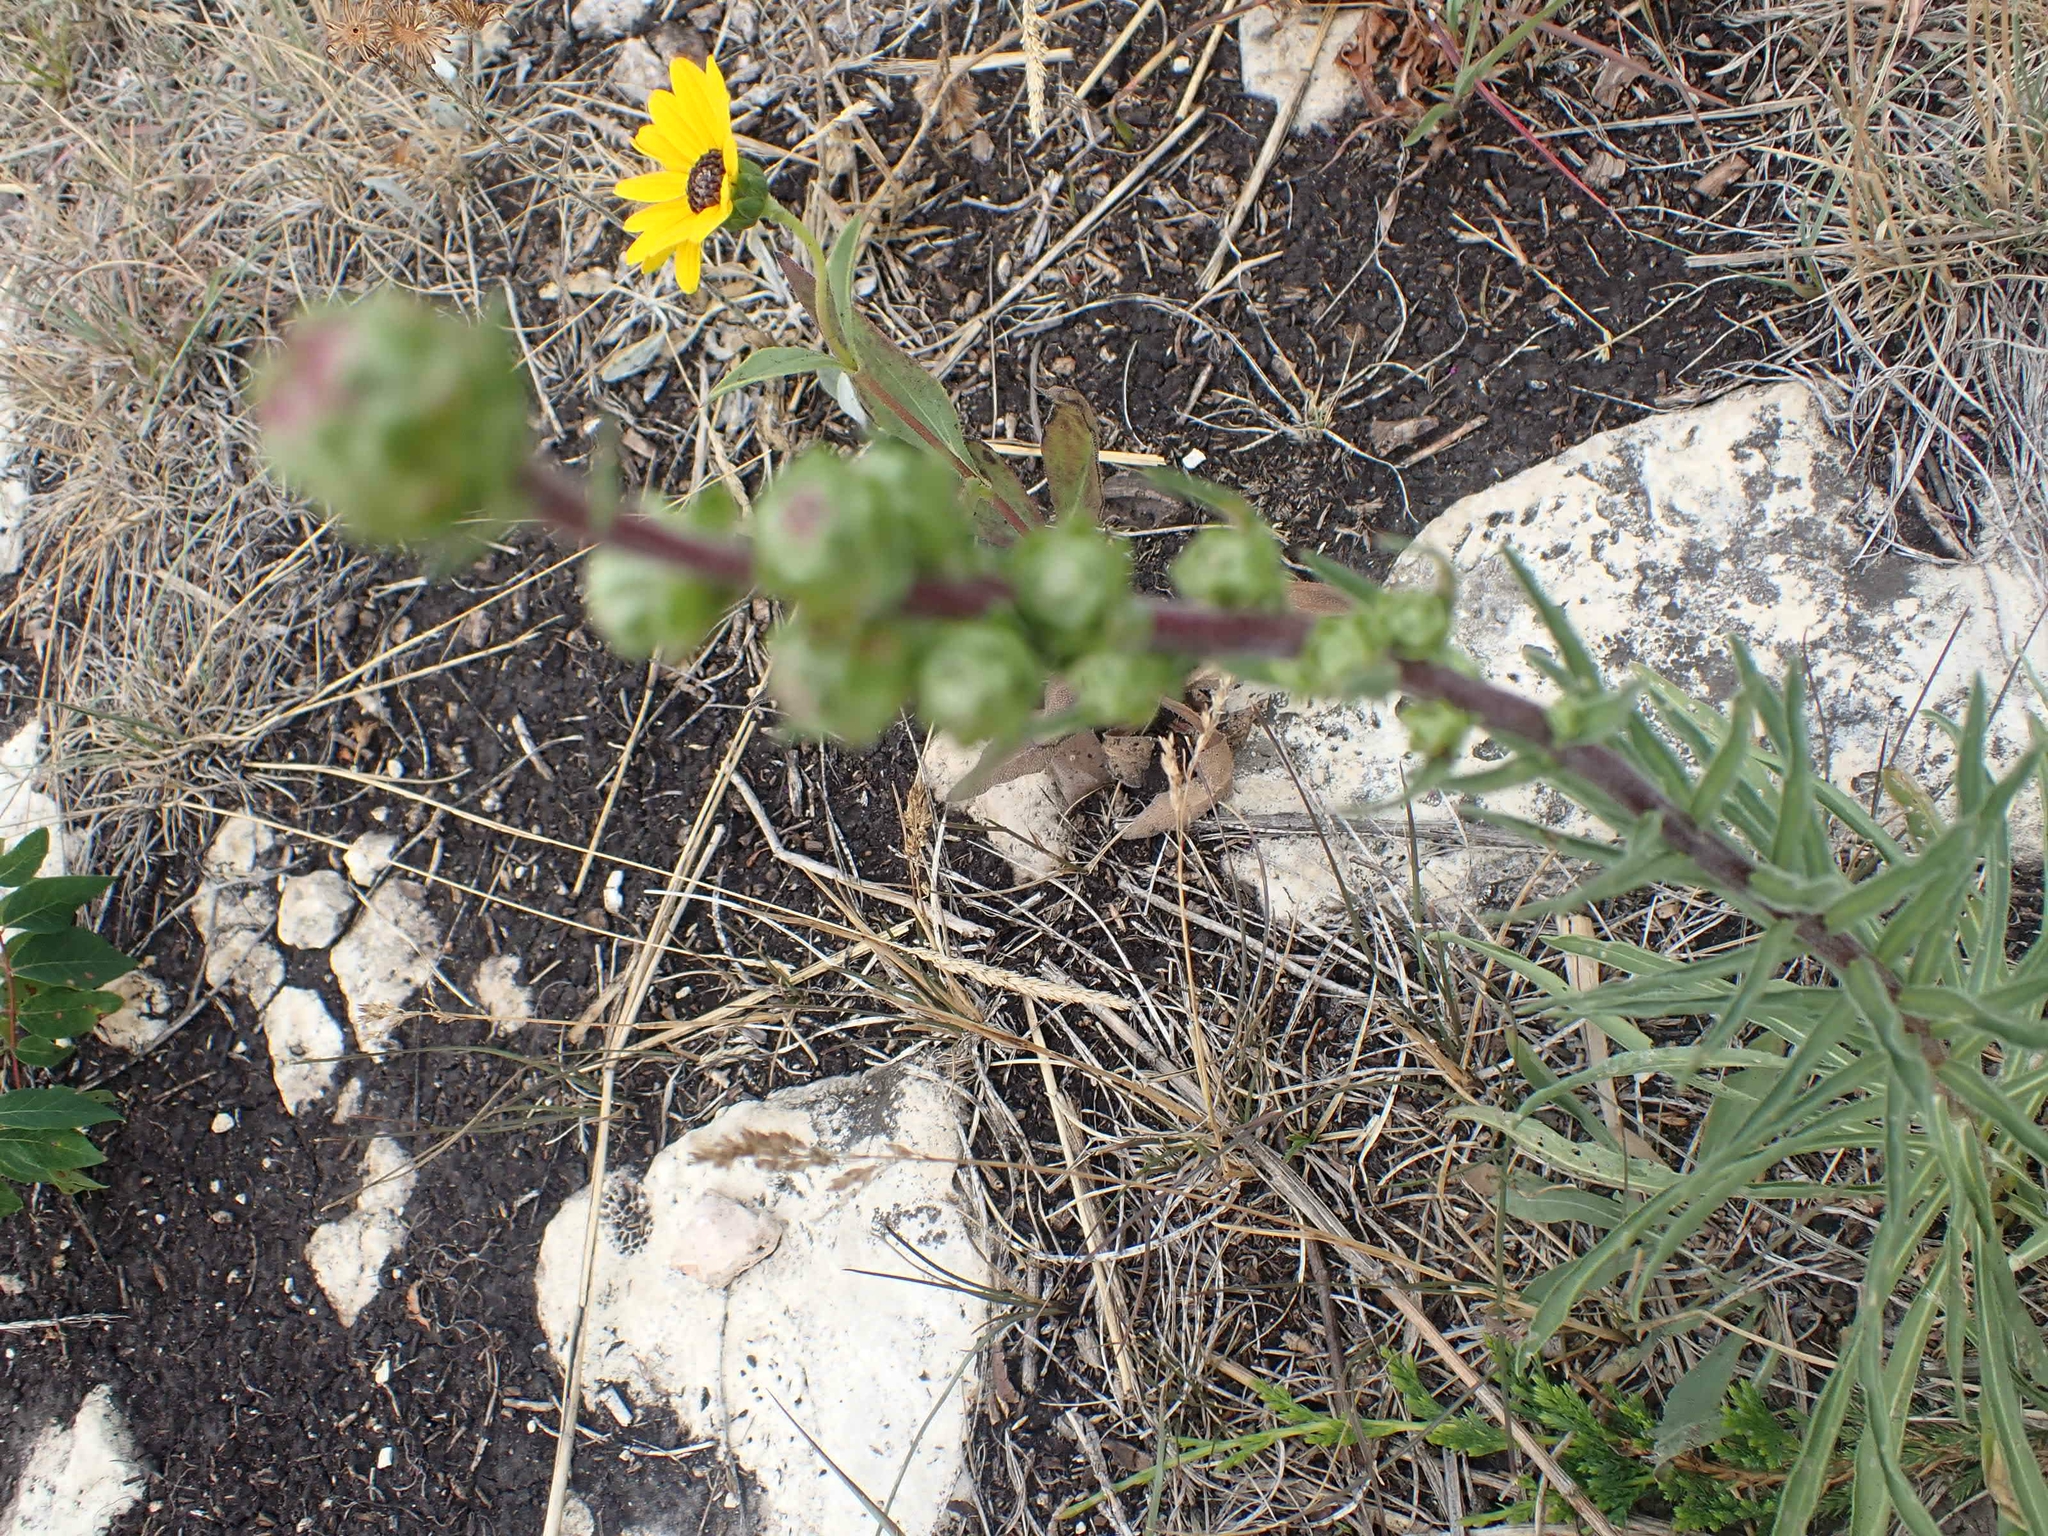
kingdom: Plantae
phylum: Tracheophyta
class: Magnoliopsida
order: Asterales
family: Asteraceae
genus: Liatris
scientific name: Liatris ligulistylis
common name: Northern plains gayfeather
